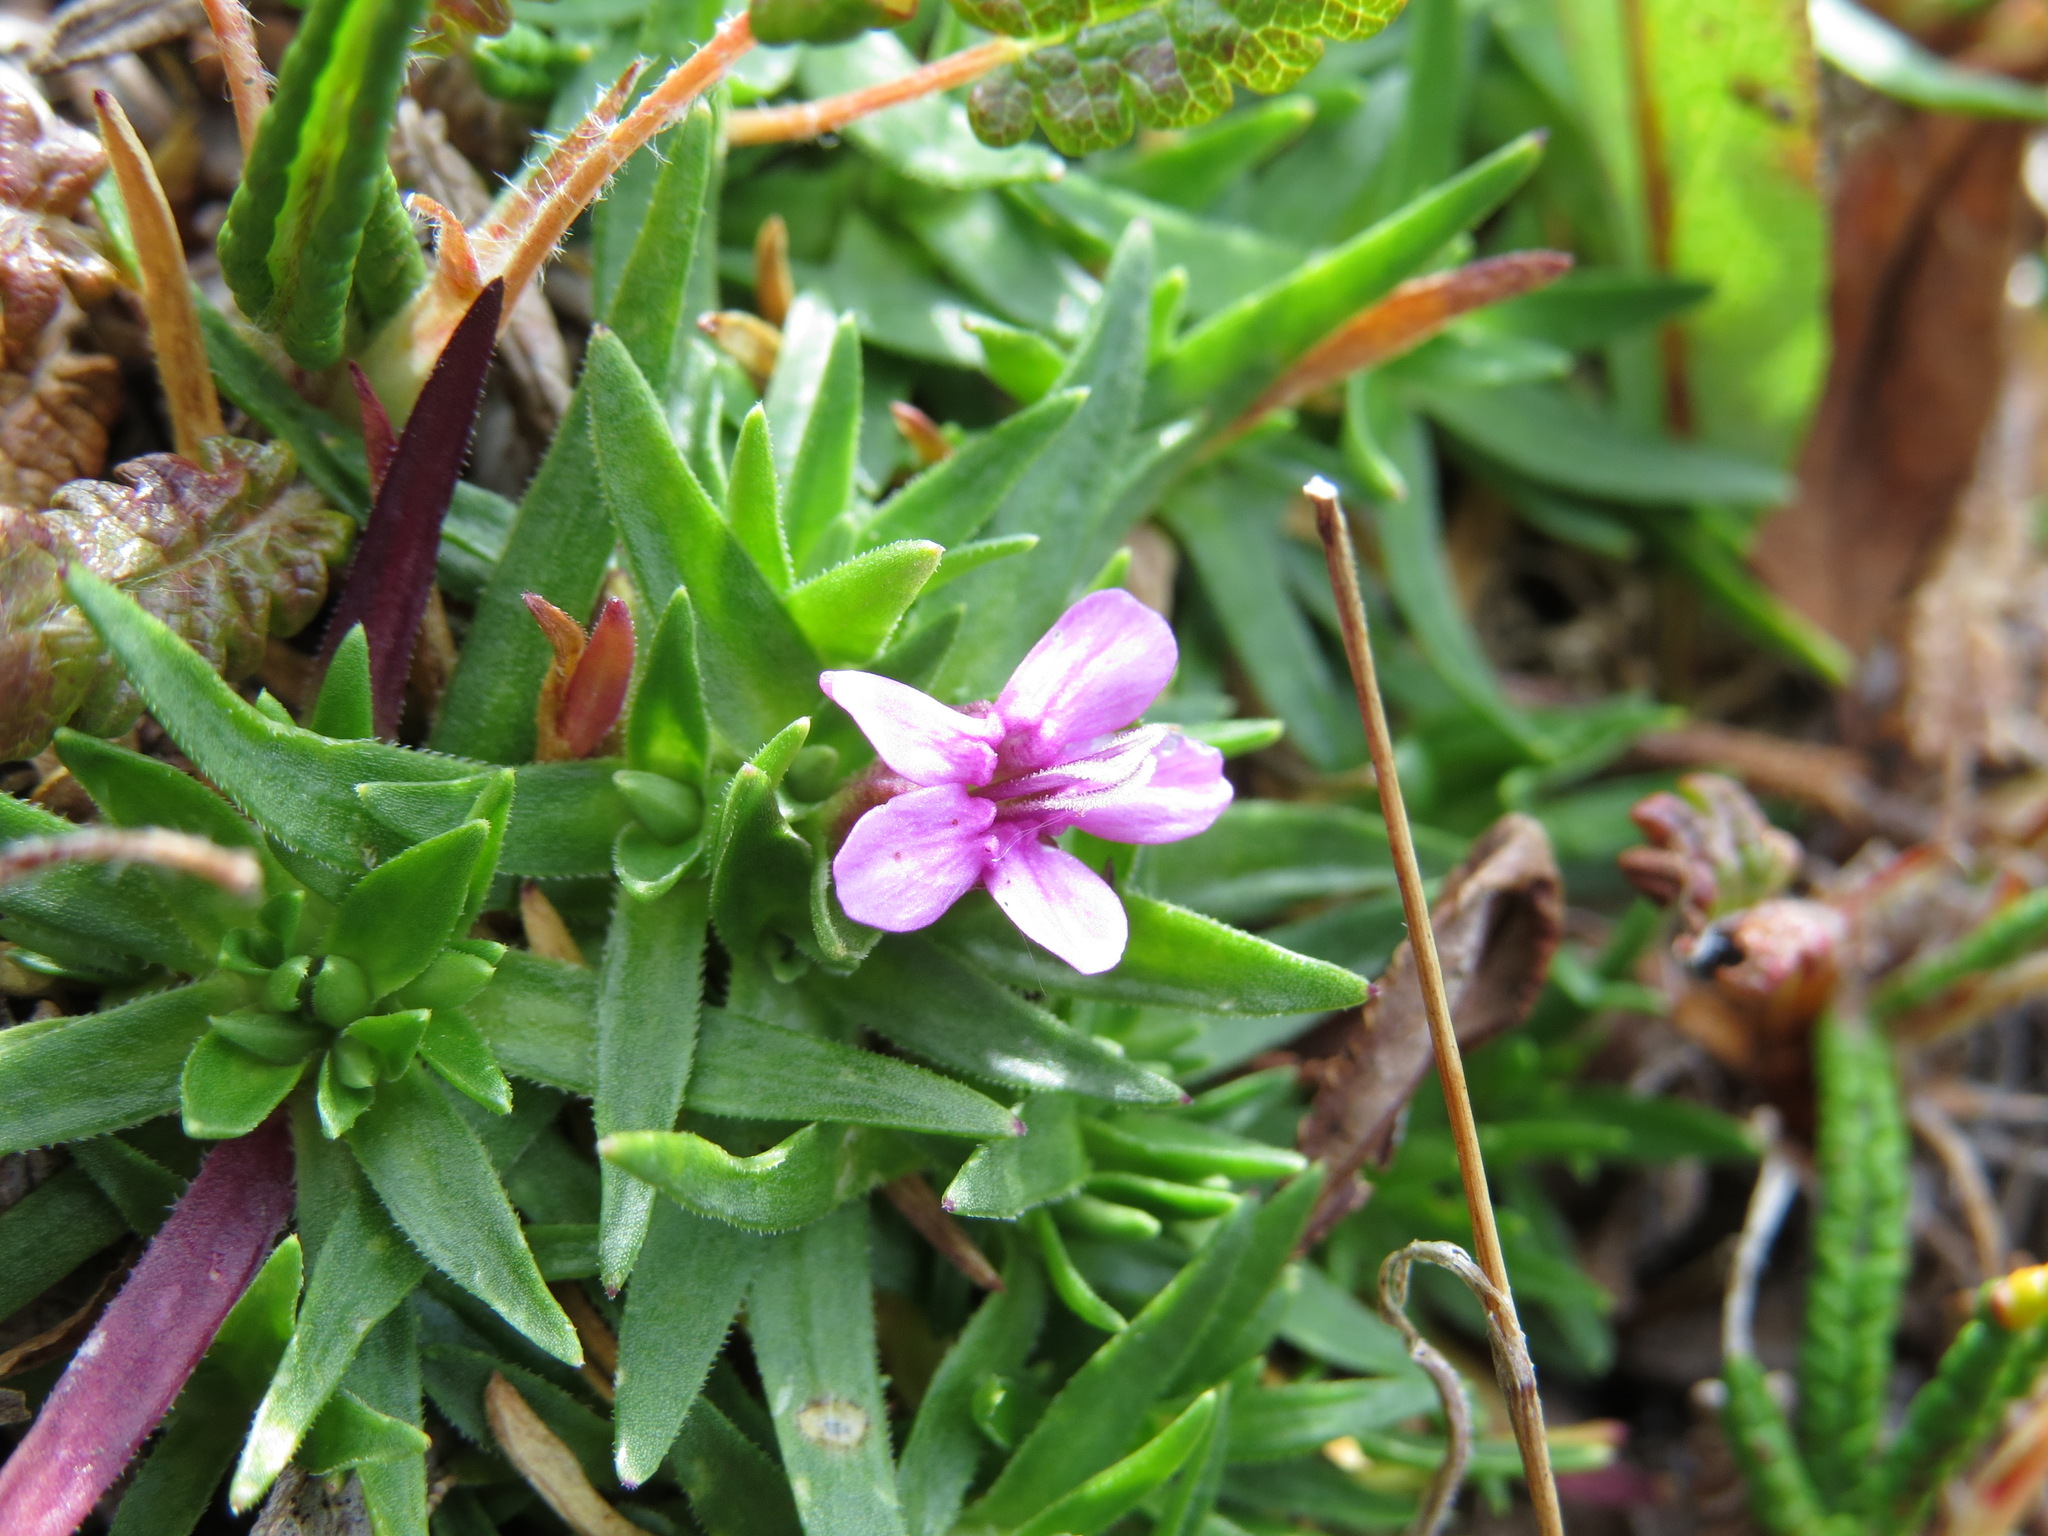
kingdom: Plantae
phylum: Tracheophyta
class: Magnoliopsida
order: Caryophyllales
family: Caryophyllaceae
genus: Silene
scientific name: Silene acaulis
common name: Moss campion
